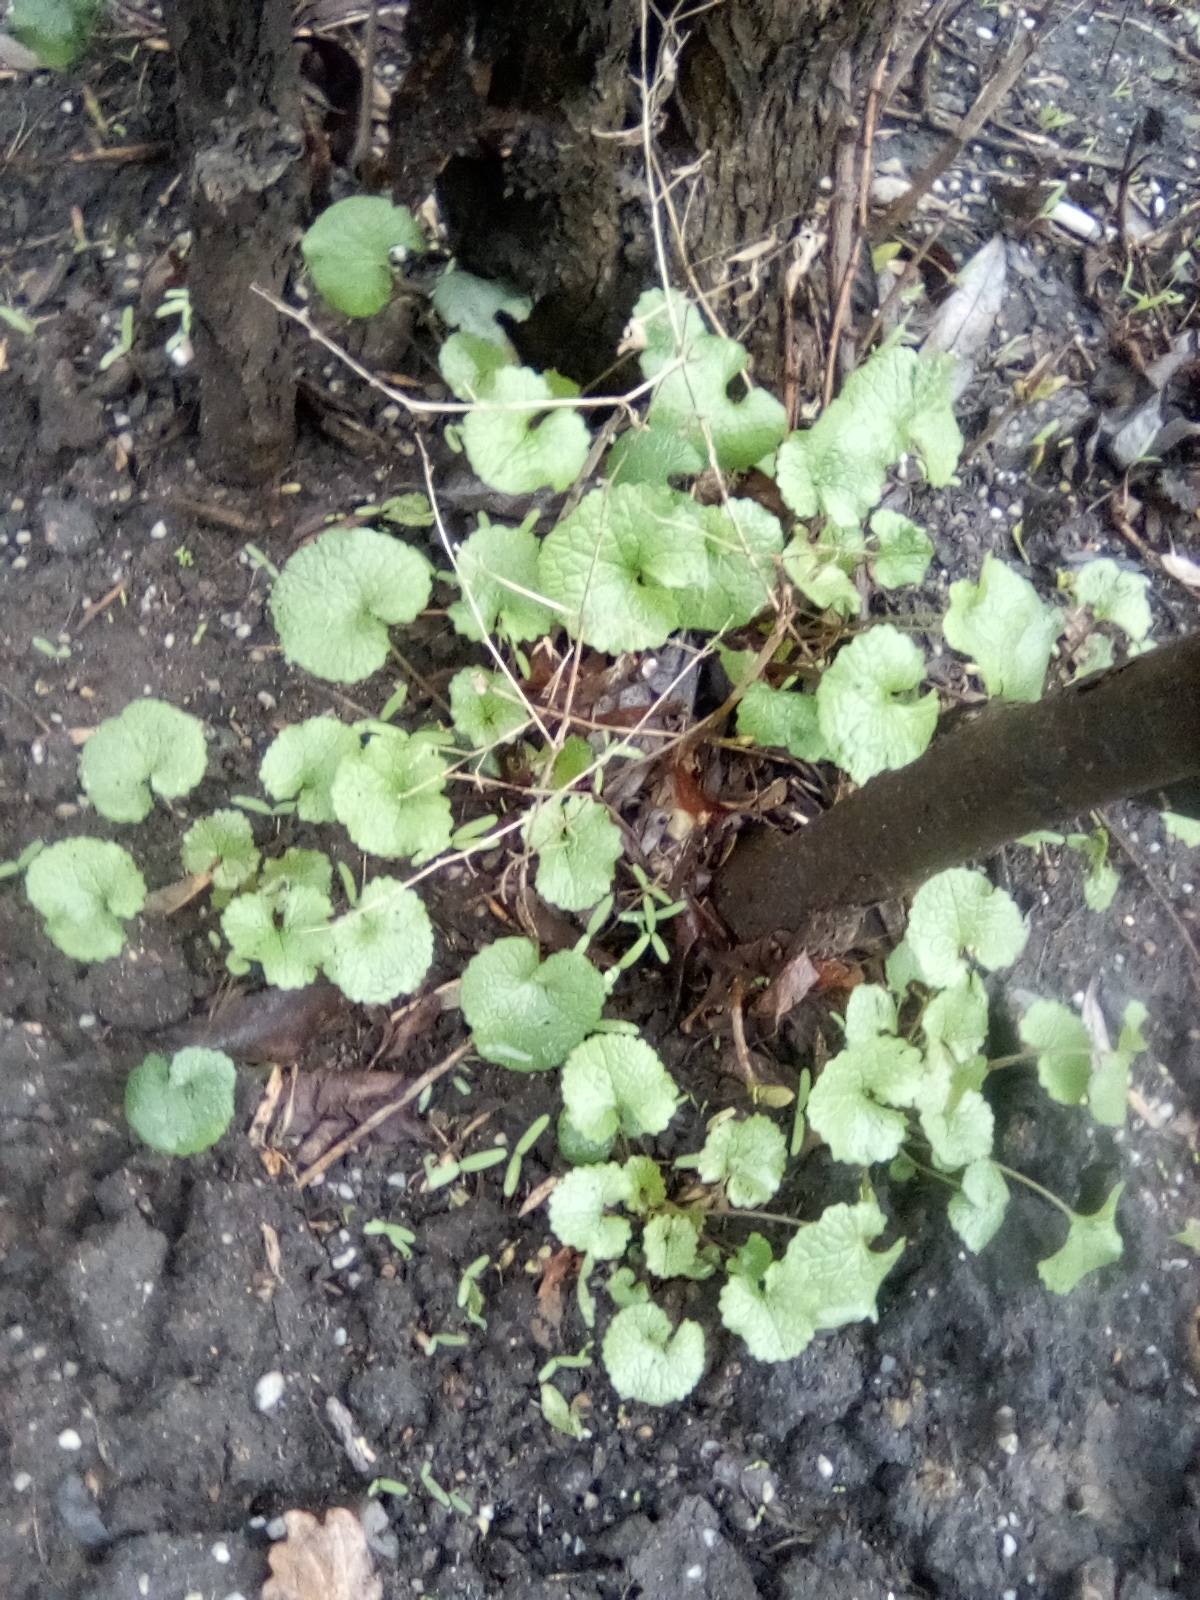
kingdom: Plantae
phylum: Tracheophyta
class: Magnoliopsida
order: Brassicales
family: Brassicaceae
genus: Alliaria
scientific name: Alliaria petiolata
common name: Garlic mustard
